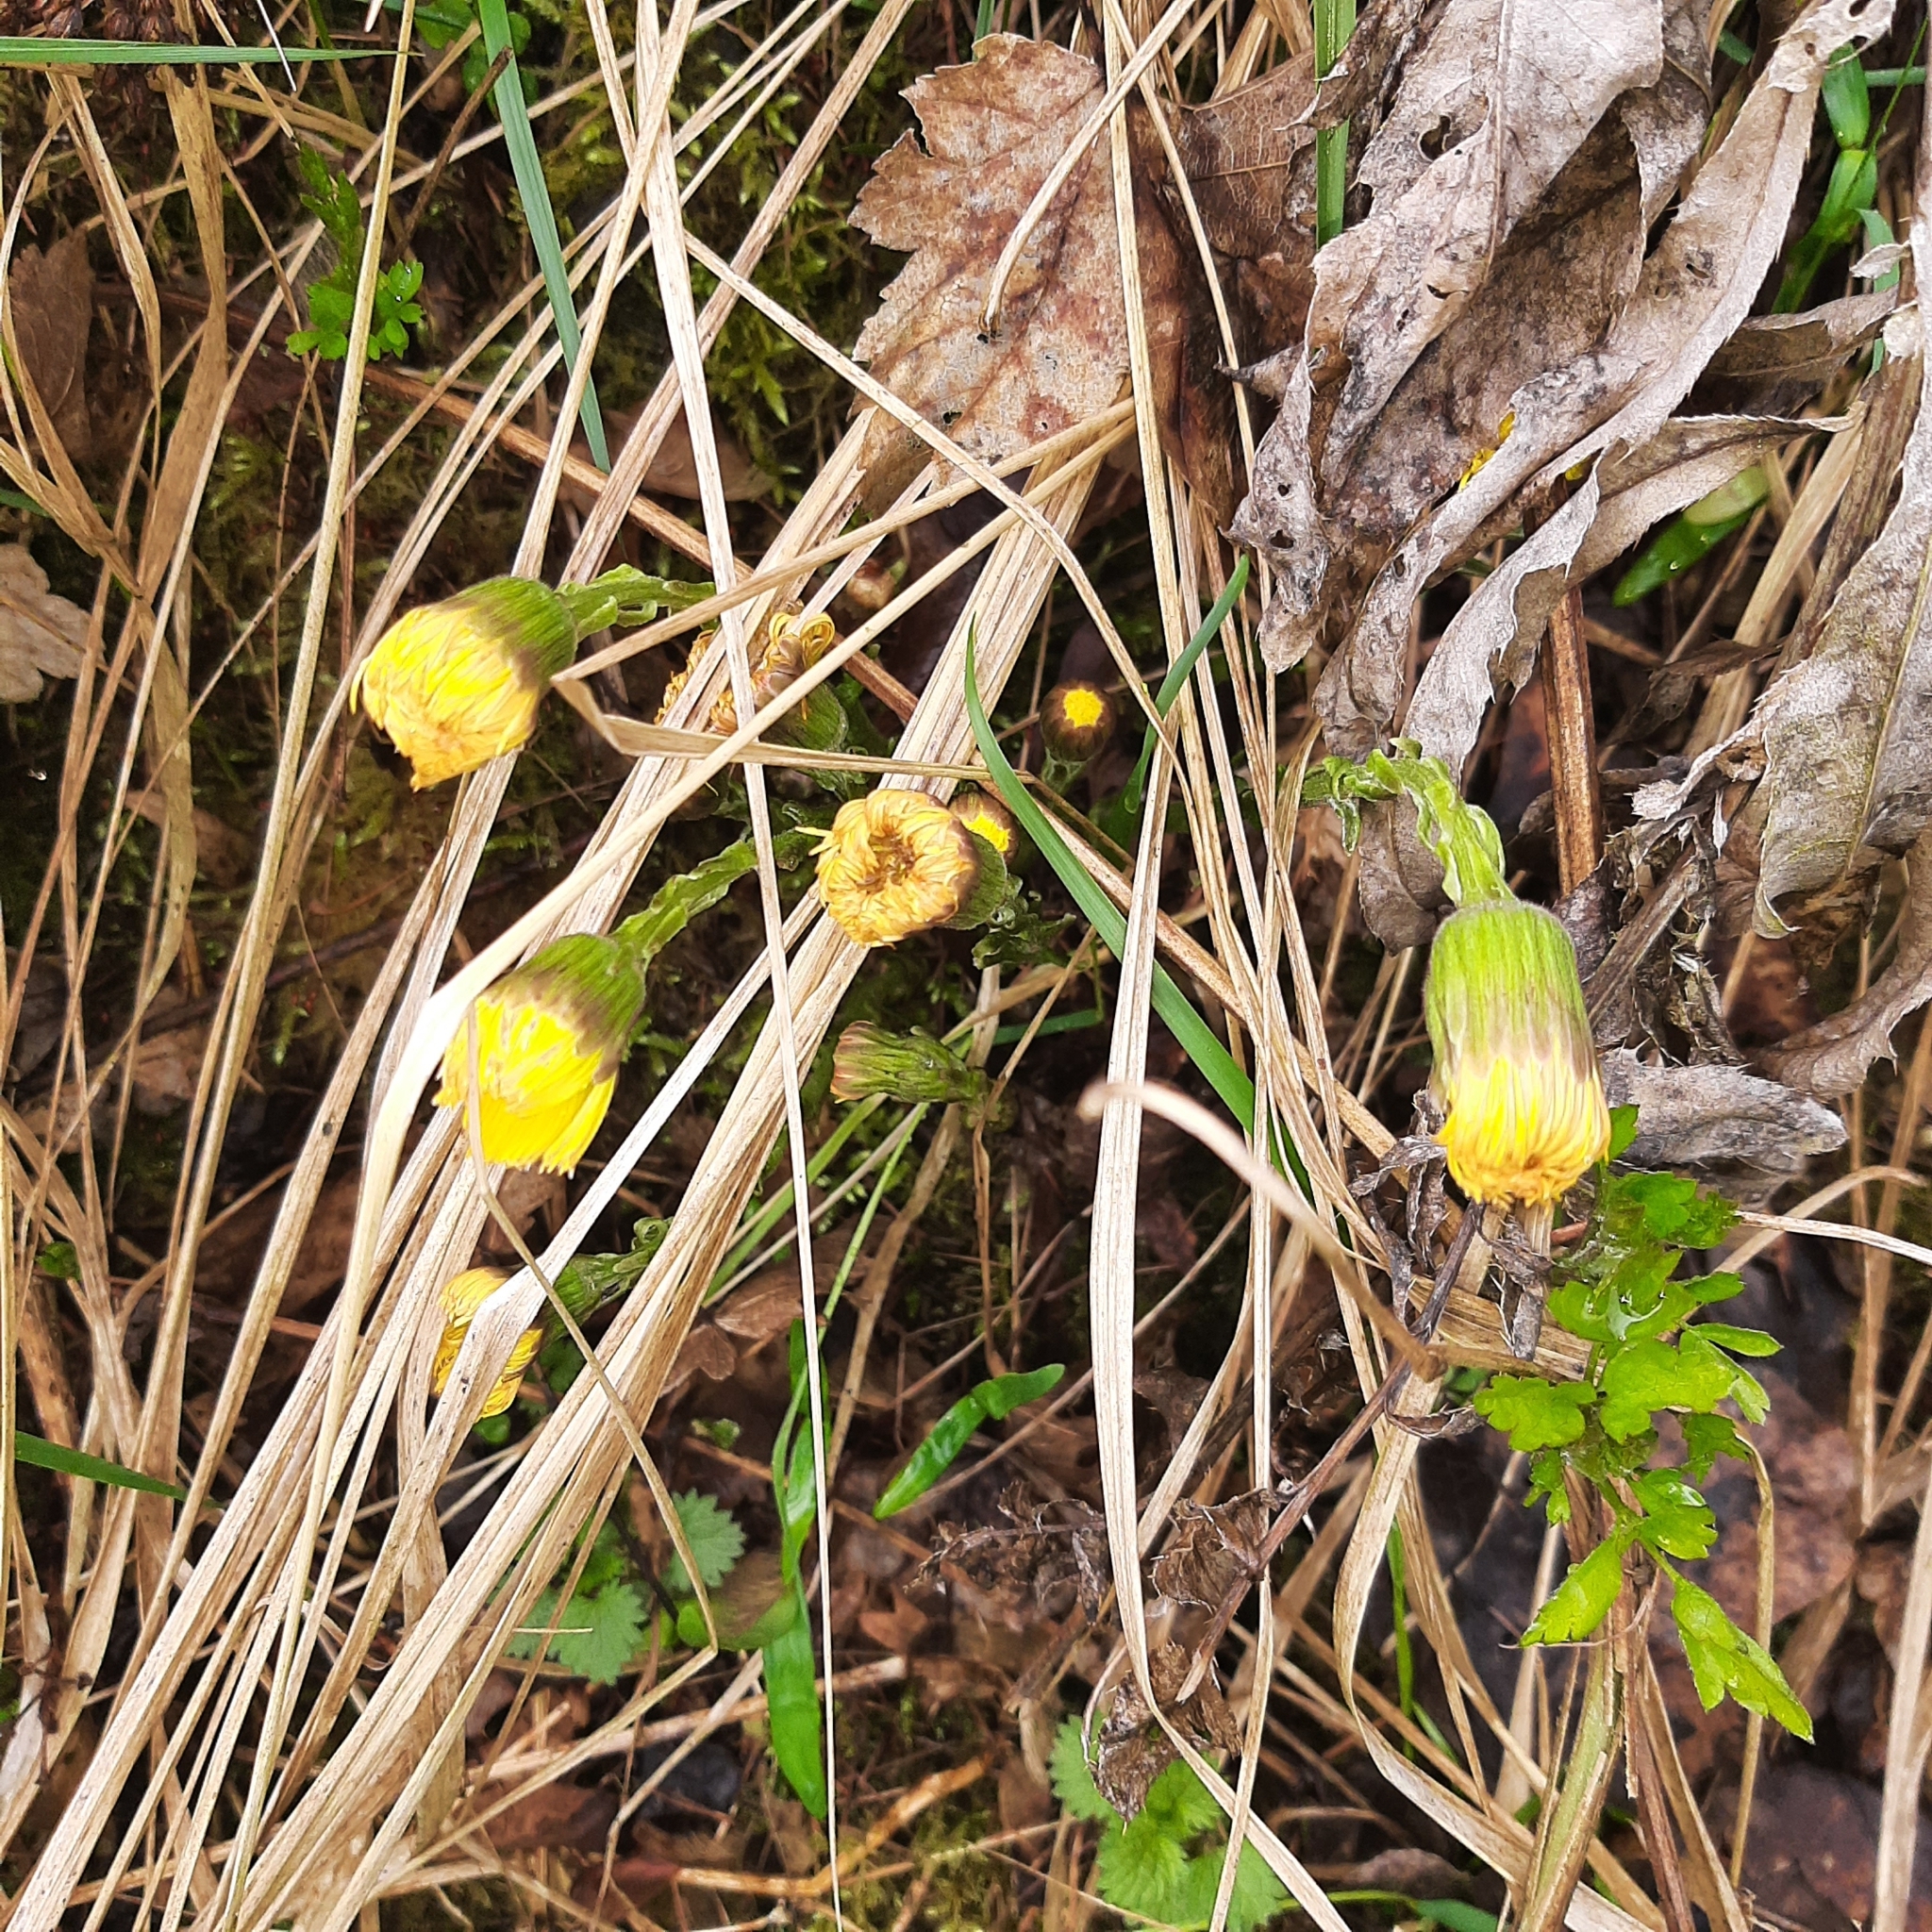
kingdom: Plantae
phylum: Tracheophyta
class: Magnoliopsida
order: Asterales
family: Asteraceae
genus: Tussilago
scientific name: Tussilago farfara
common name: Coltsfoot
